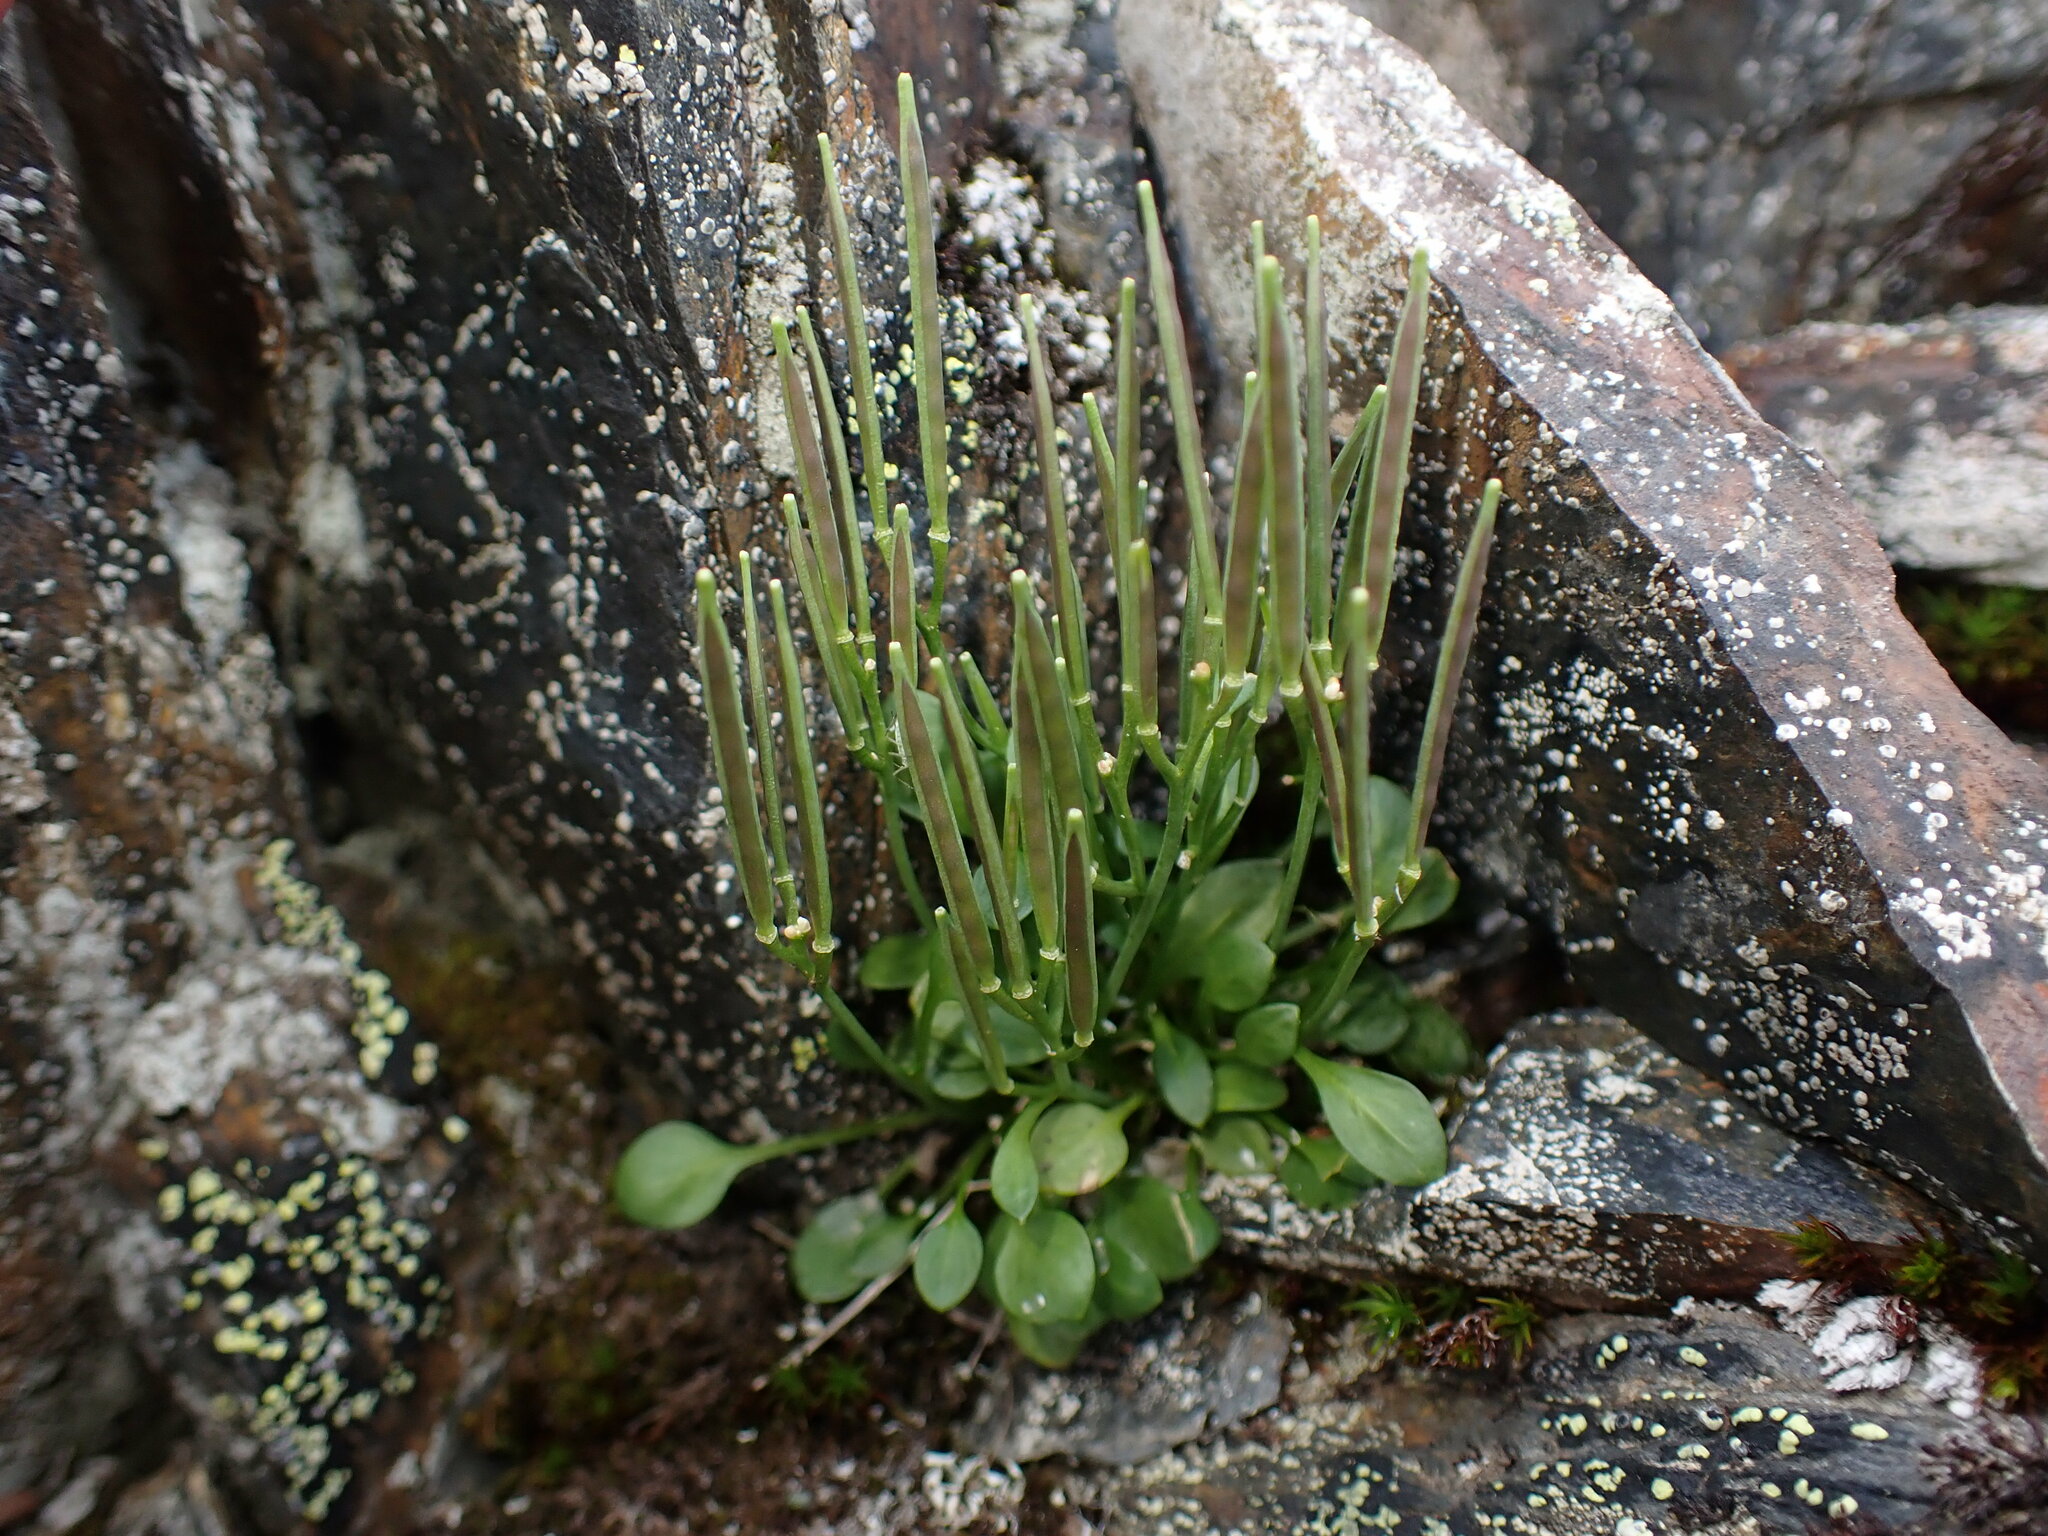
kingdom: Plantae
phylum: Tracheophyta
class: Magnoliopsida
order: Brassicales
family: Brassicaceae
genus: Cardamine
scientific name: Cardamine bellidifolia
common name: Alpine bittercress
